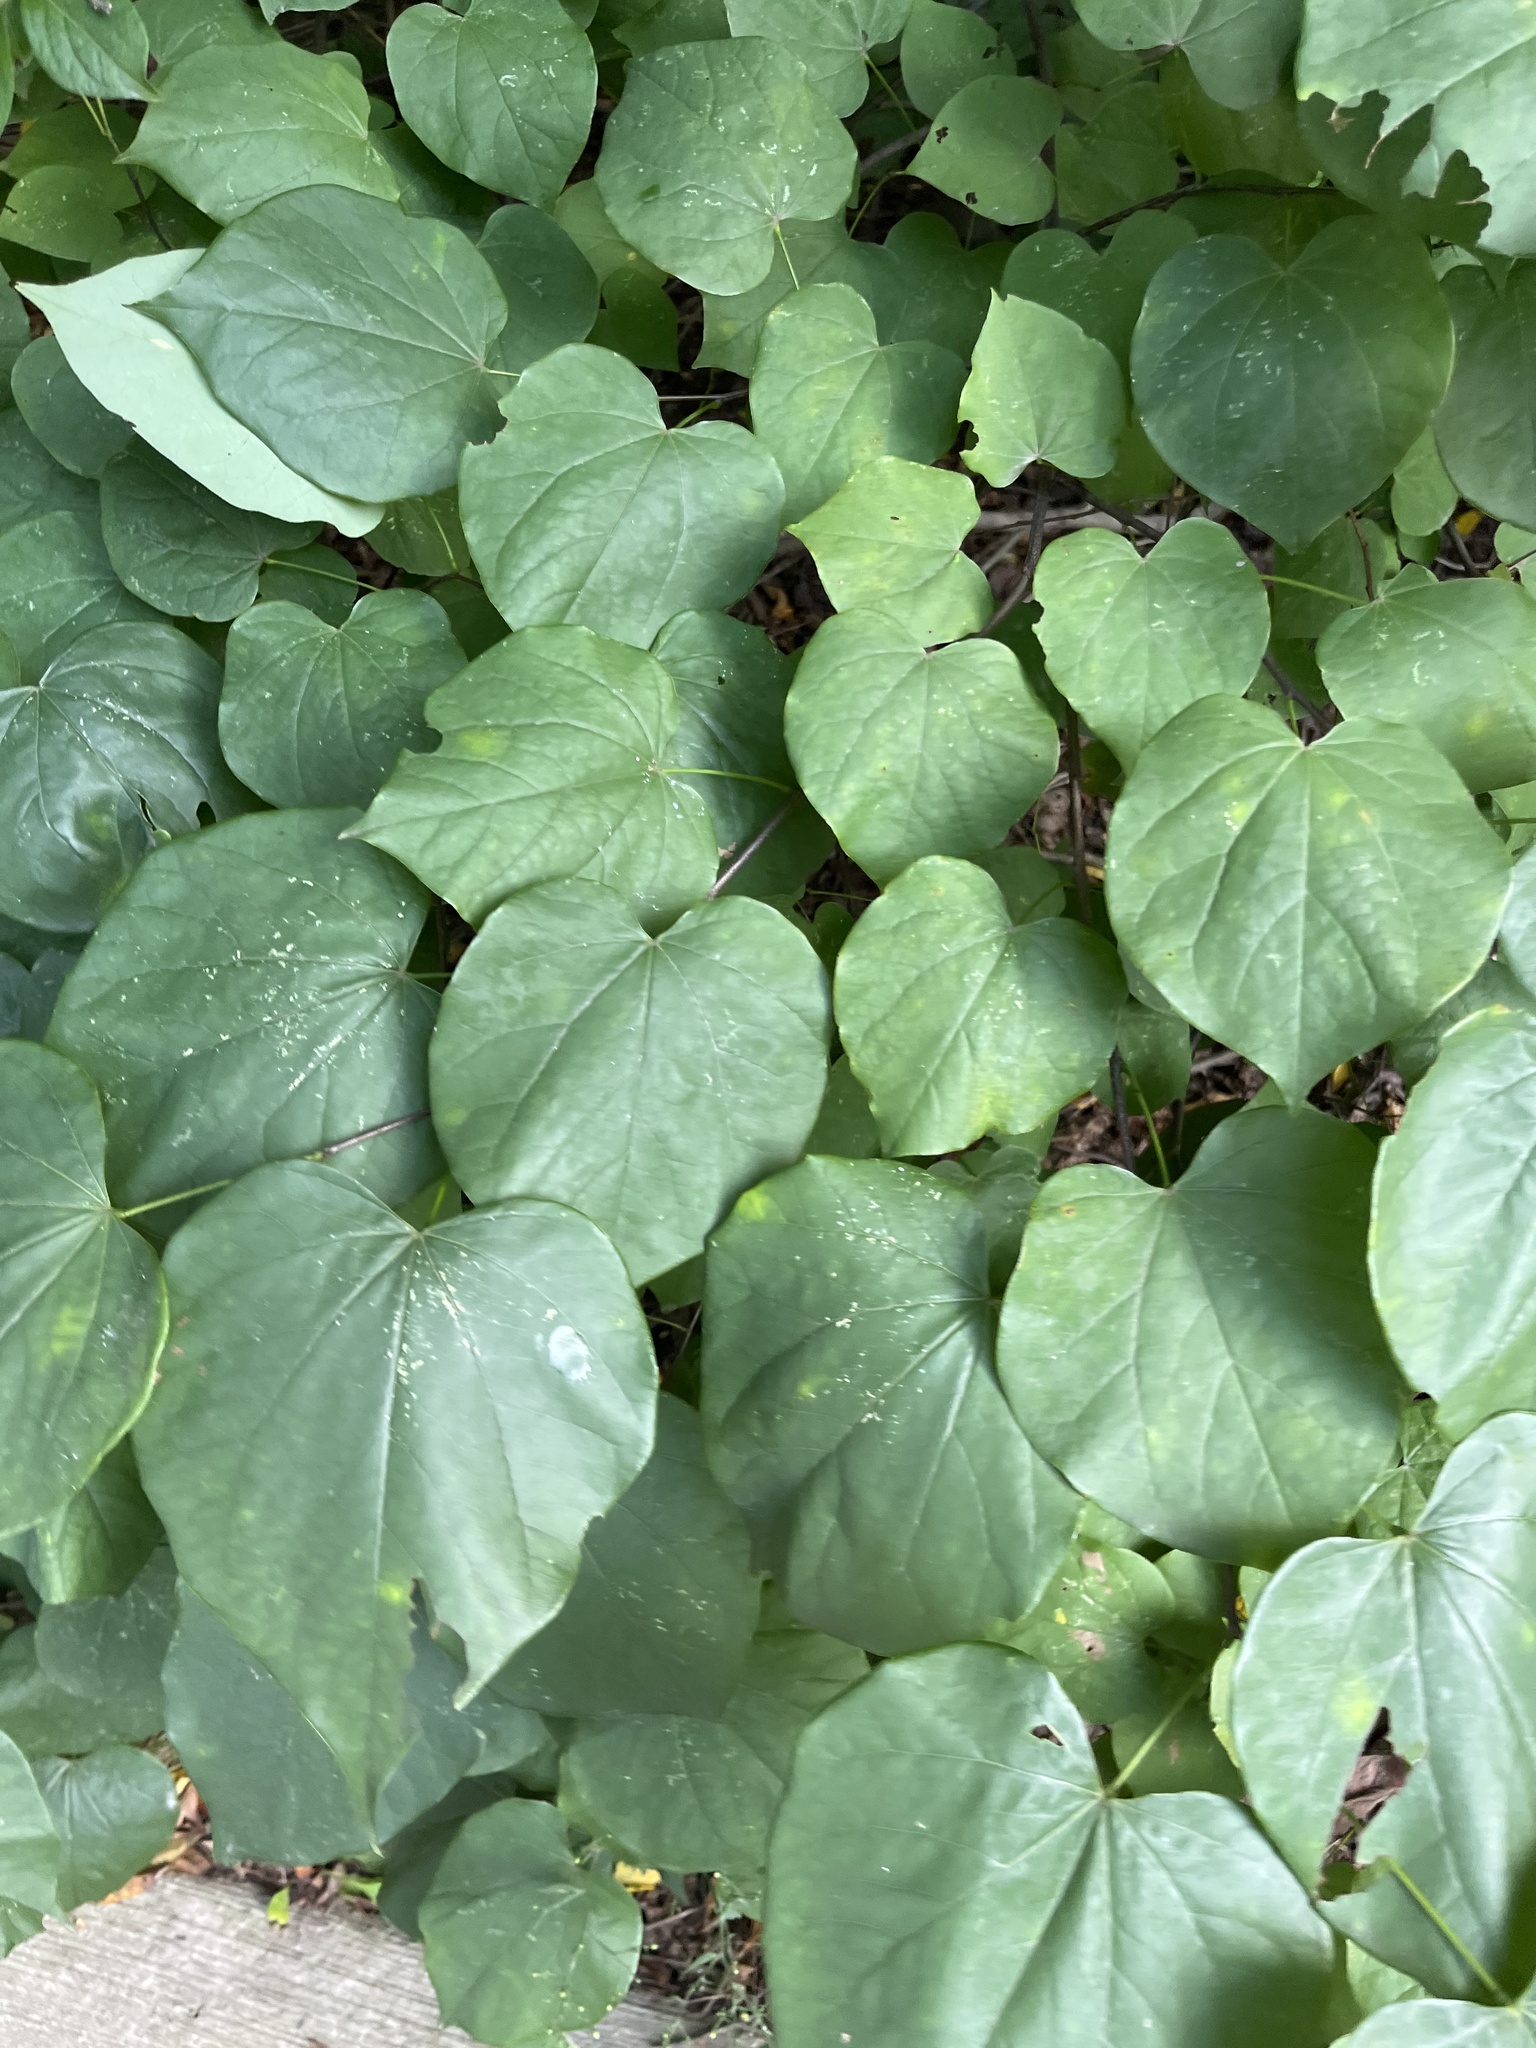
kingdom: Plantae
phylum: Tracheophyta
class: Magnoliopsida
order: Fabales
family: Fabaceae
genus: Cercis
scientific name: Cercis canadensis
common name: Eastern redbud
